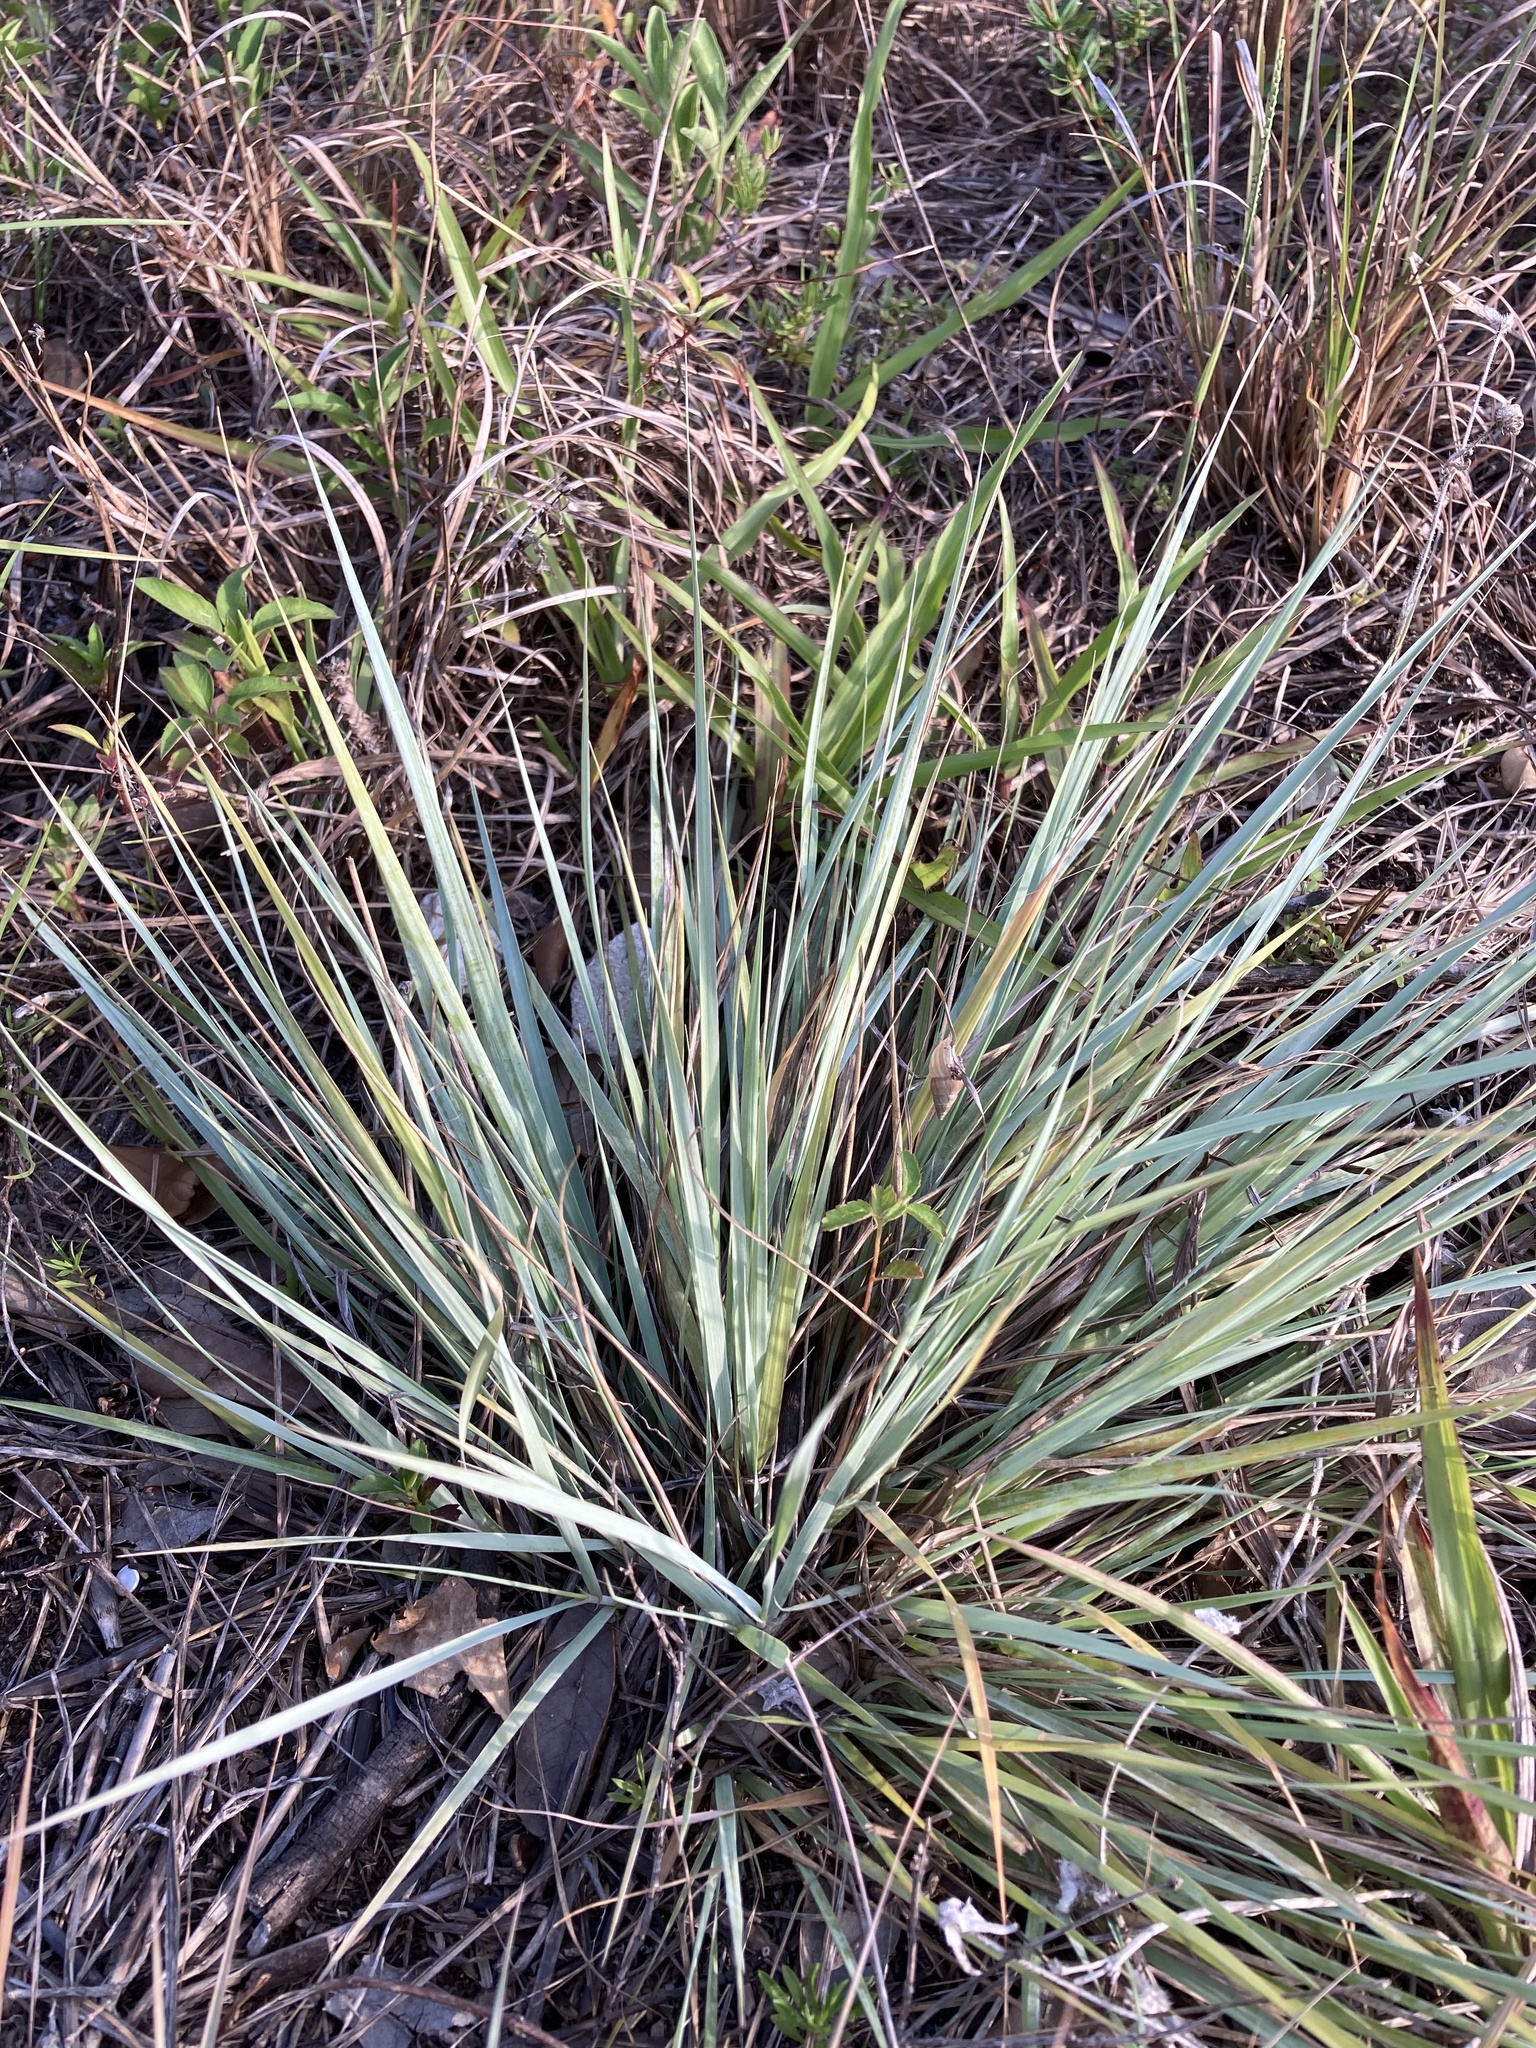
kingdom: Plantae
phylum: Tracheophyta
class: Liliopsida
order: Poales
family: Poaceae
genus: Eragrostis
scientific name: Eragrostis elliottii
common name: Elliott's love grass
